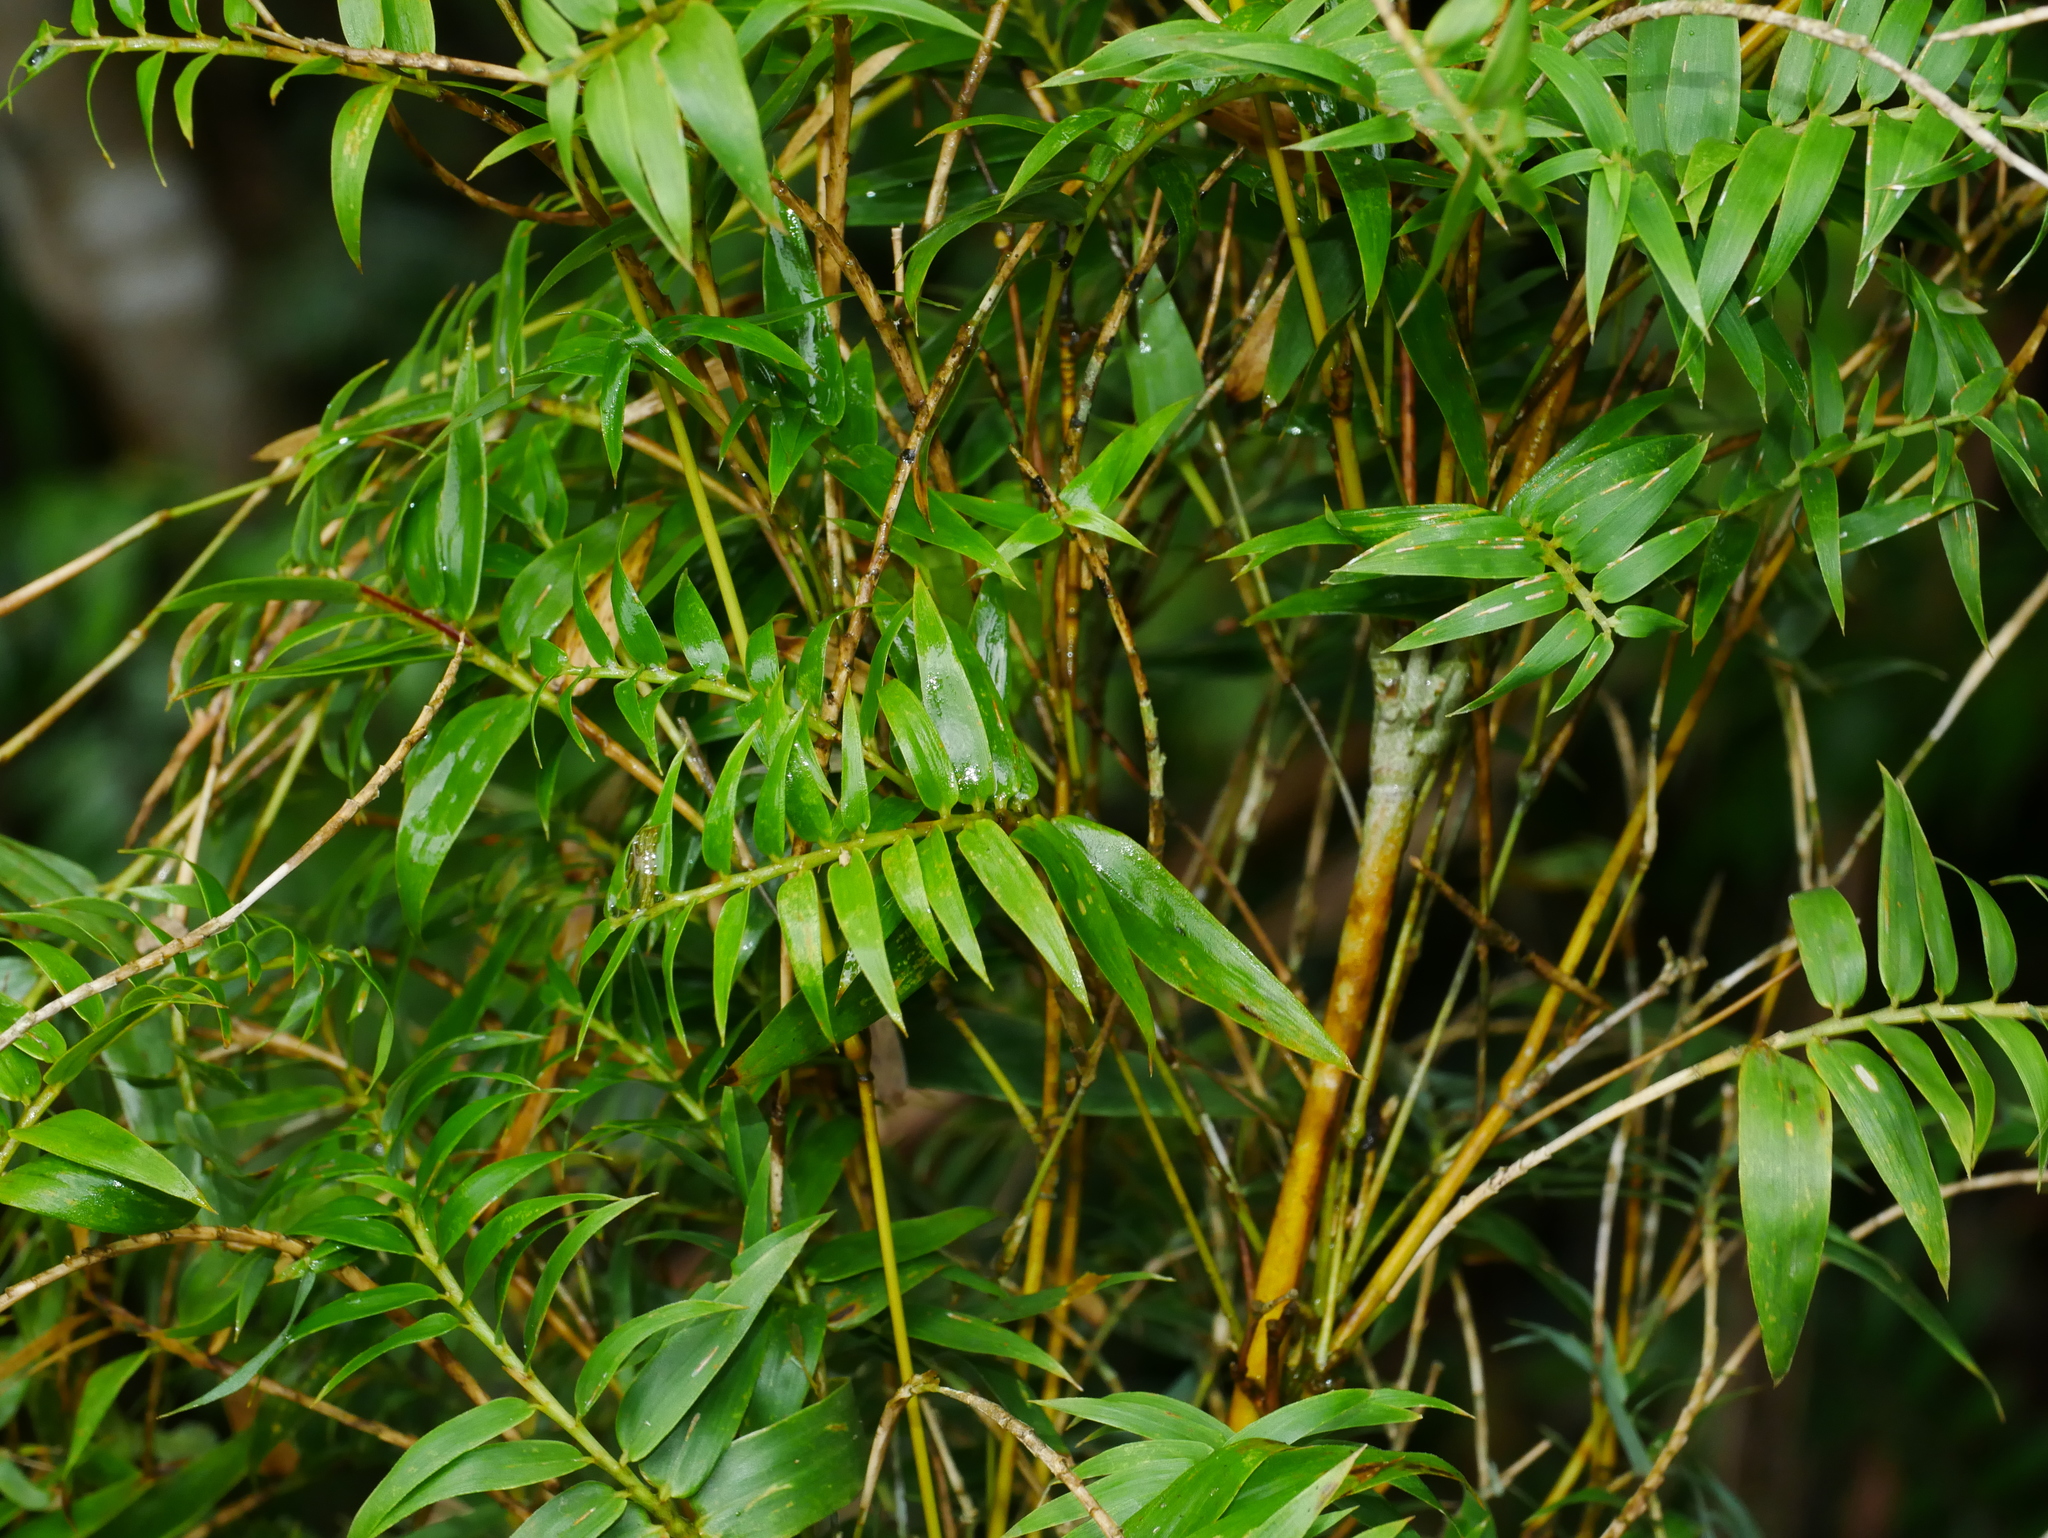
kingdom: Plantae
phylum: Tracheophyta
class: Liliopsida
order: Poales
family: Poaceae
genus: Bambusa
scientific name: Bambusa multiplex
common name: Hedge bamboo
